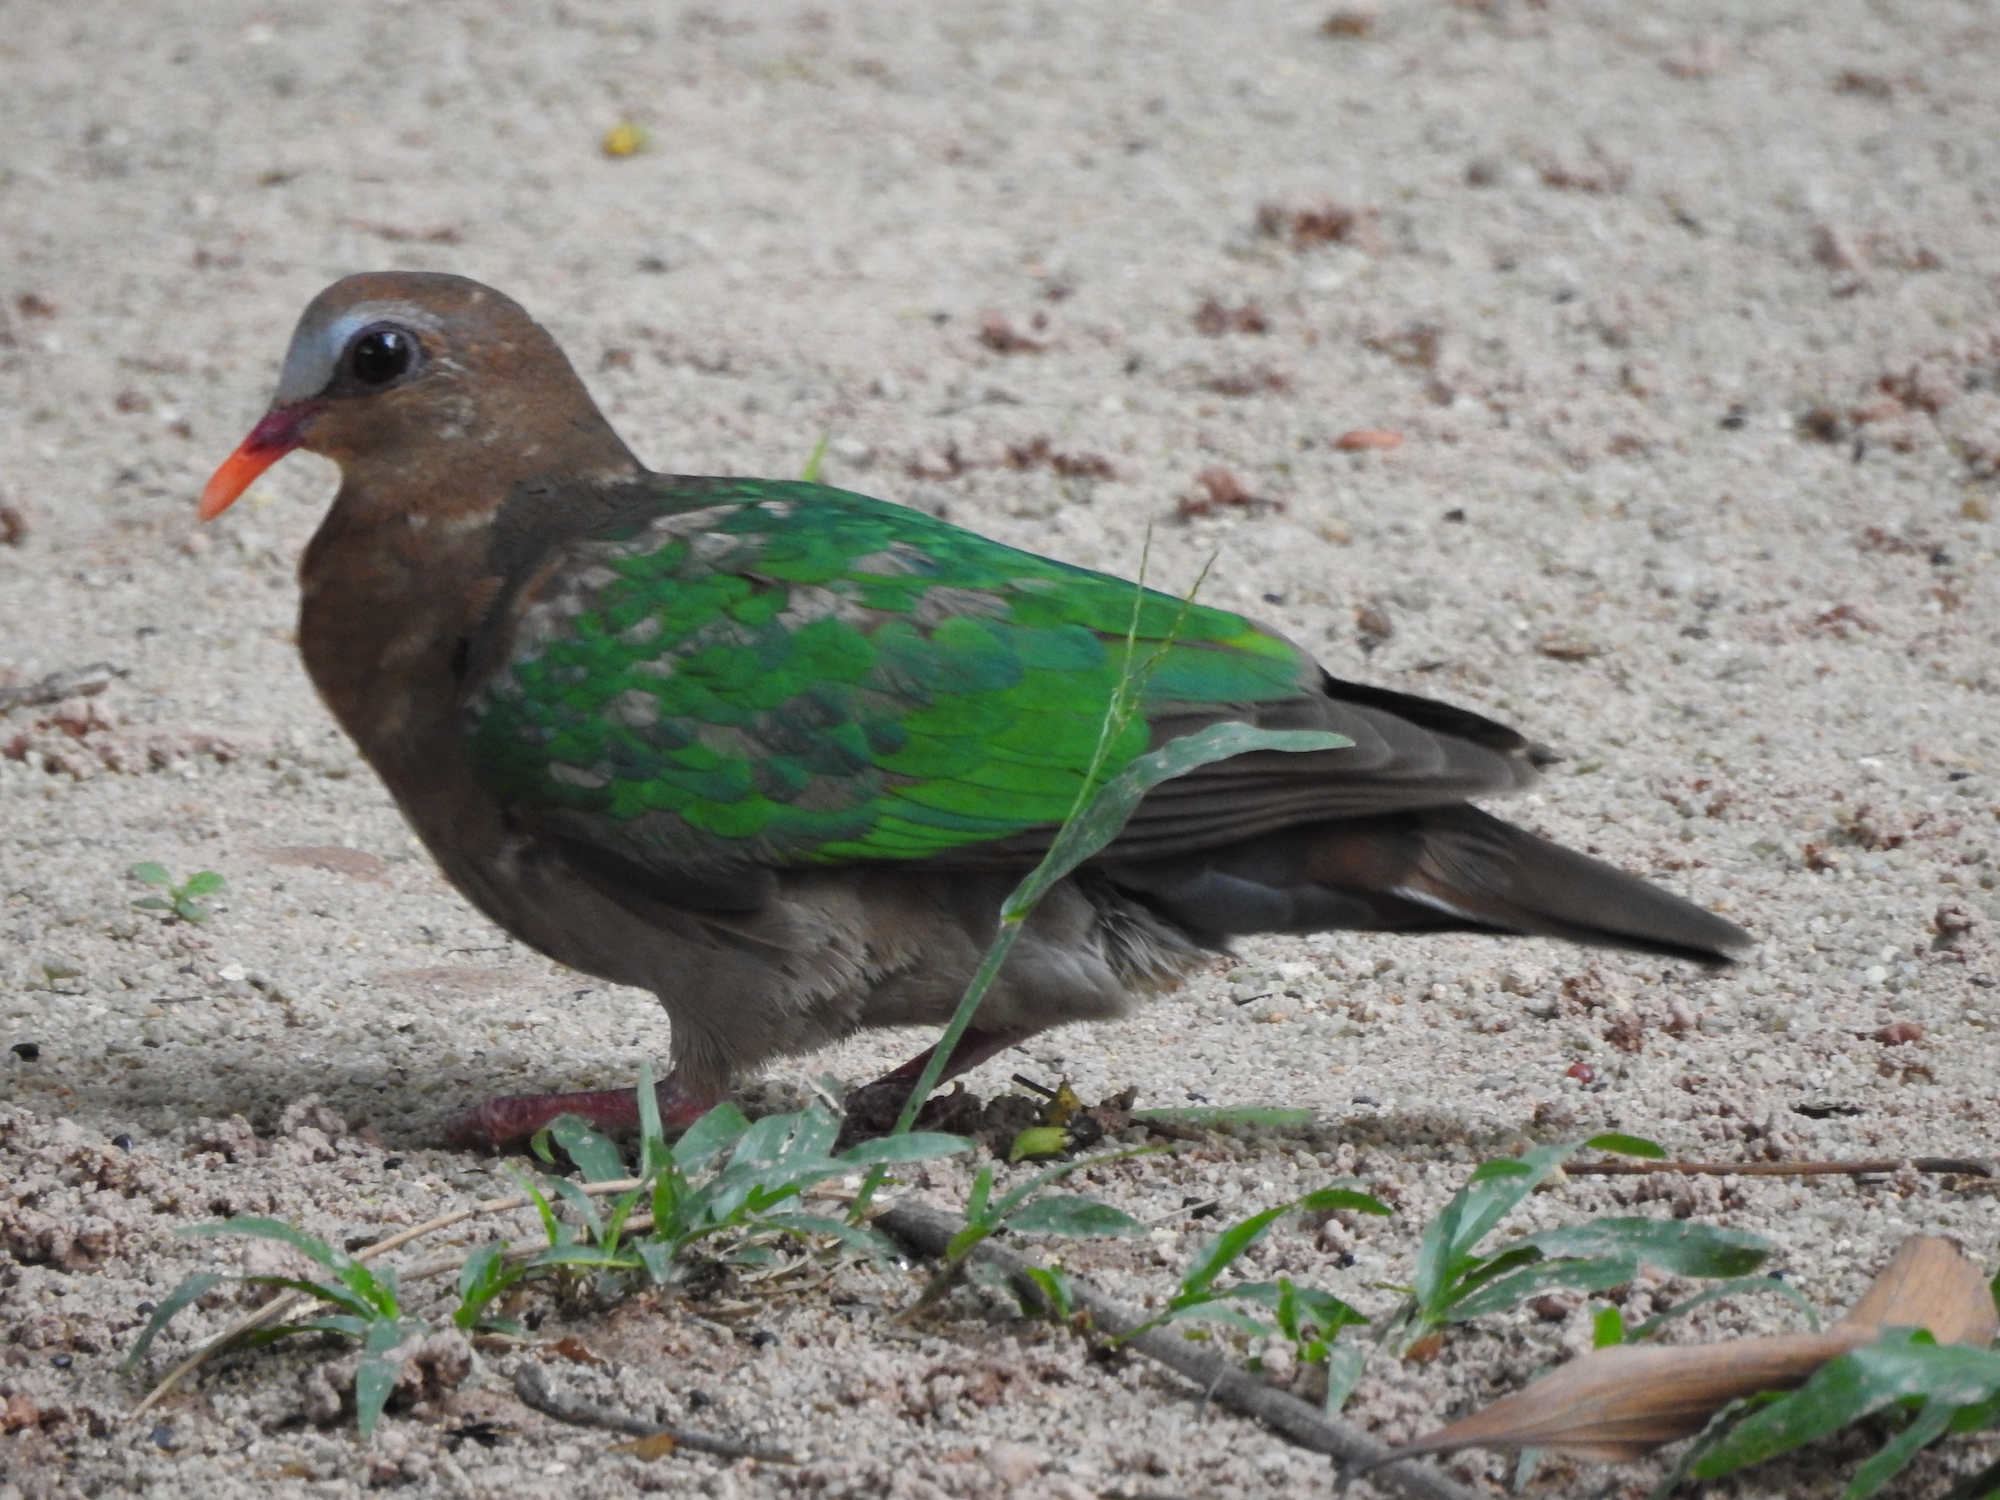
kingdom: Animalia
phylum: Chordata
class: Aves
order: Columbiformes
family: Columbidae
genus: Chalcophaps
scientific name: Chalcophaps indica
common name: Common emerald dove
